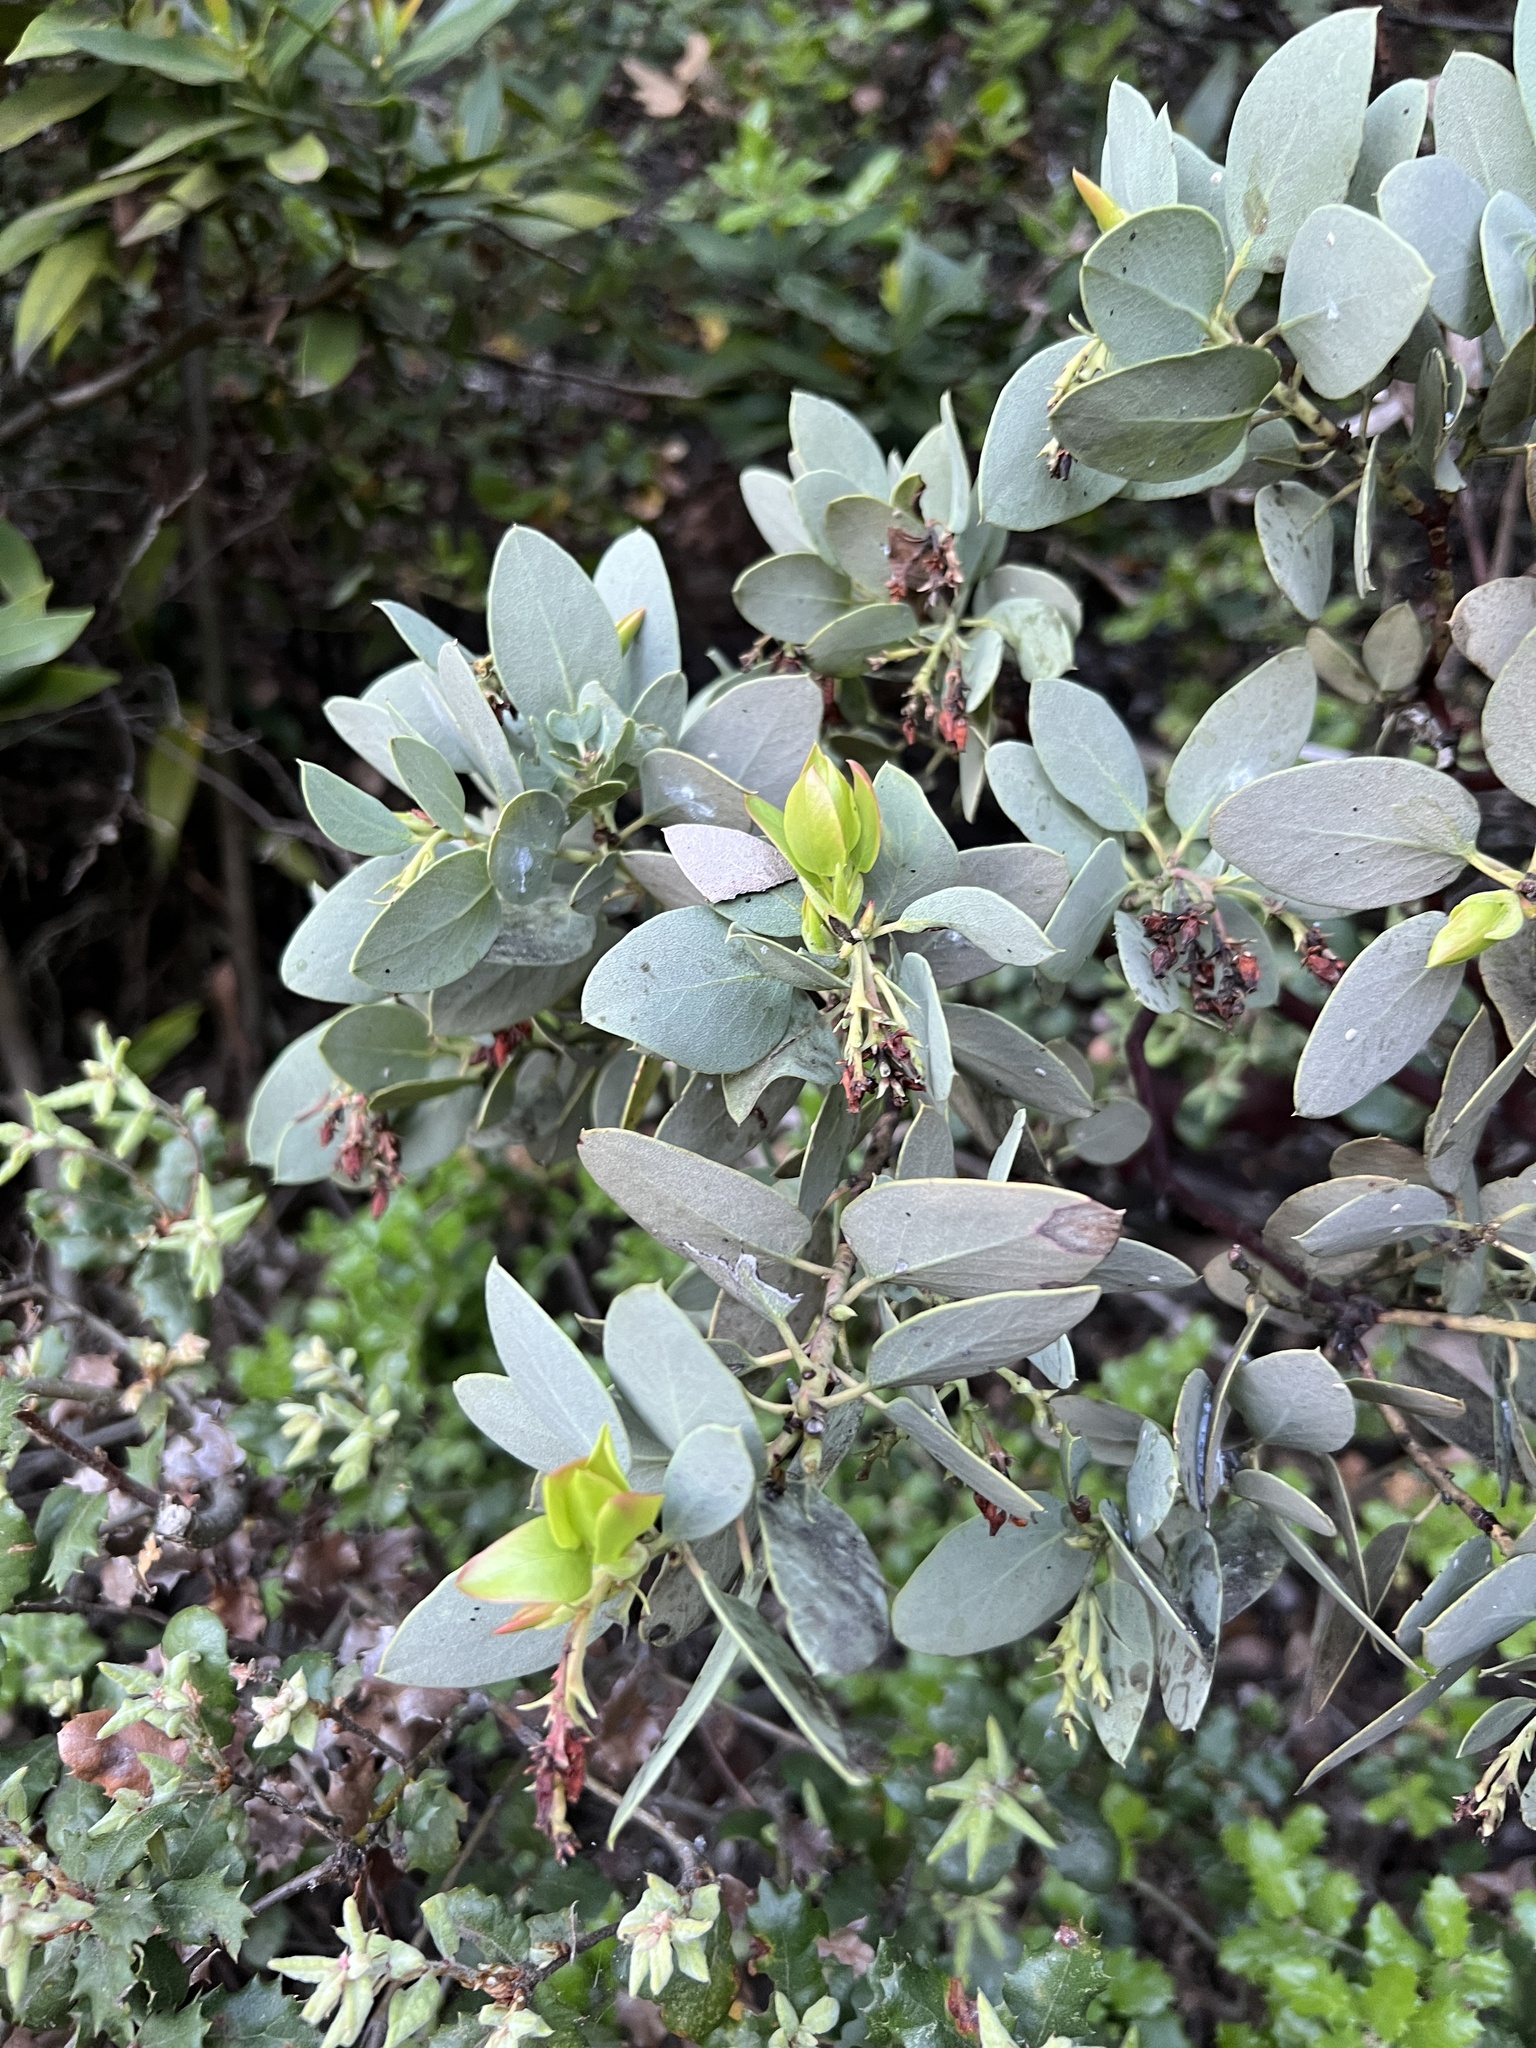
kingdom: Plantae
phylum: Tracheophyta
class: Magnoliopsida
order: Ericales
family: Ericaceae
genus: Arctostaphylos
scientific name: Arctostaphylos glauca
